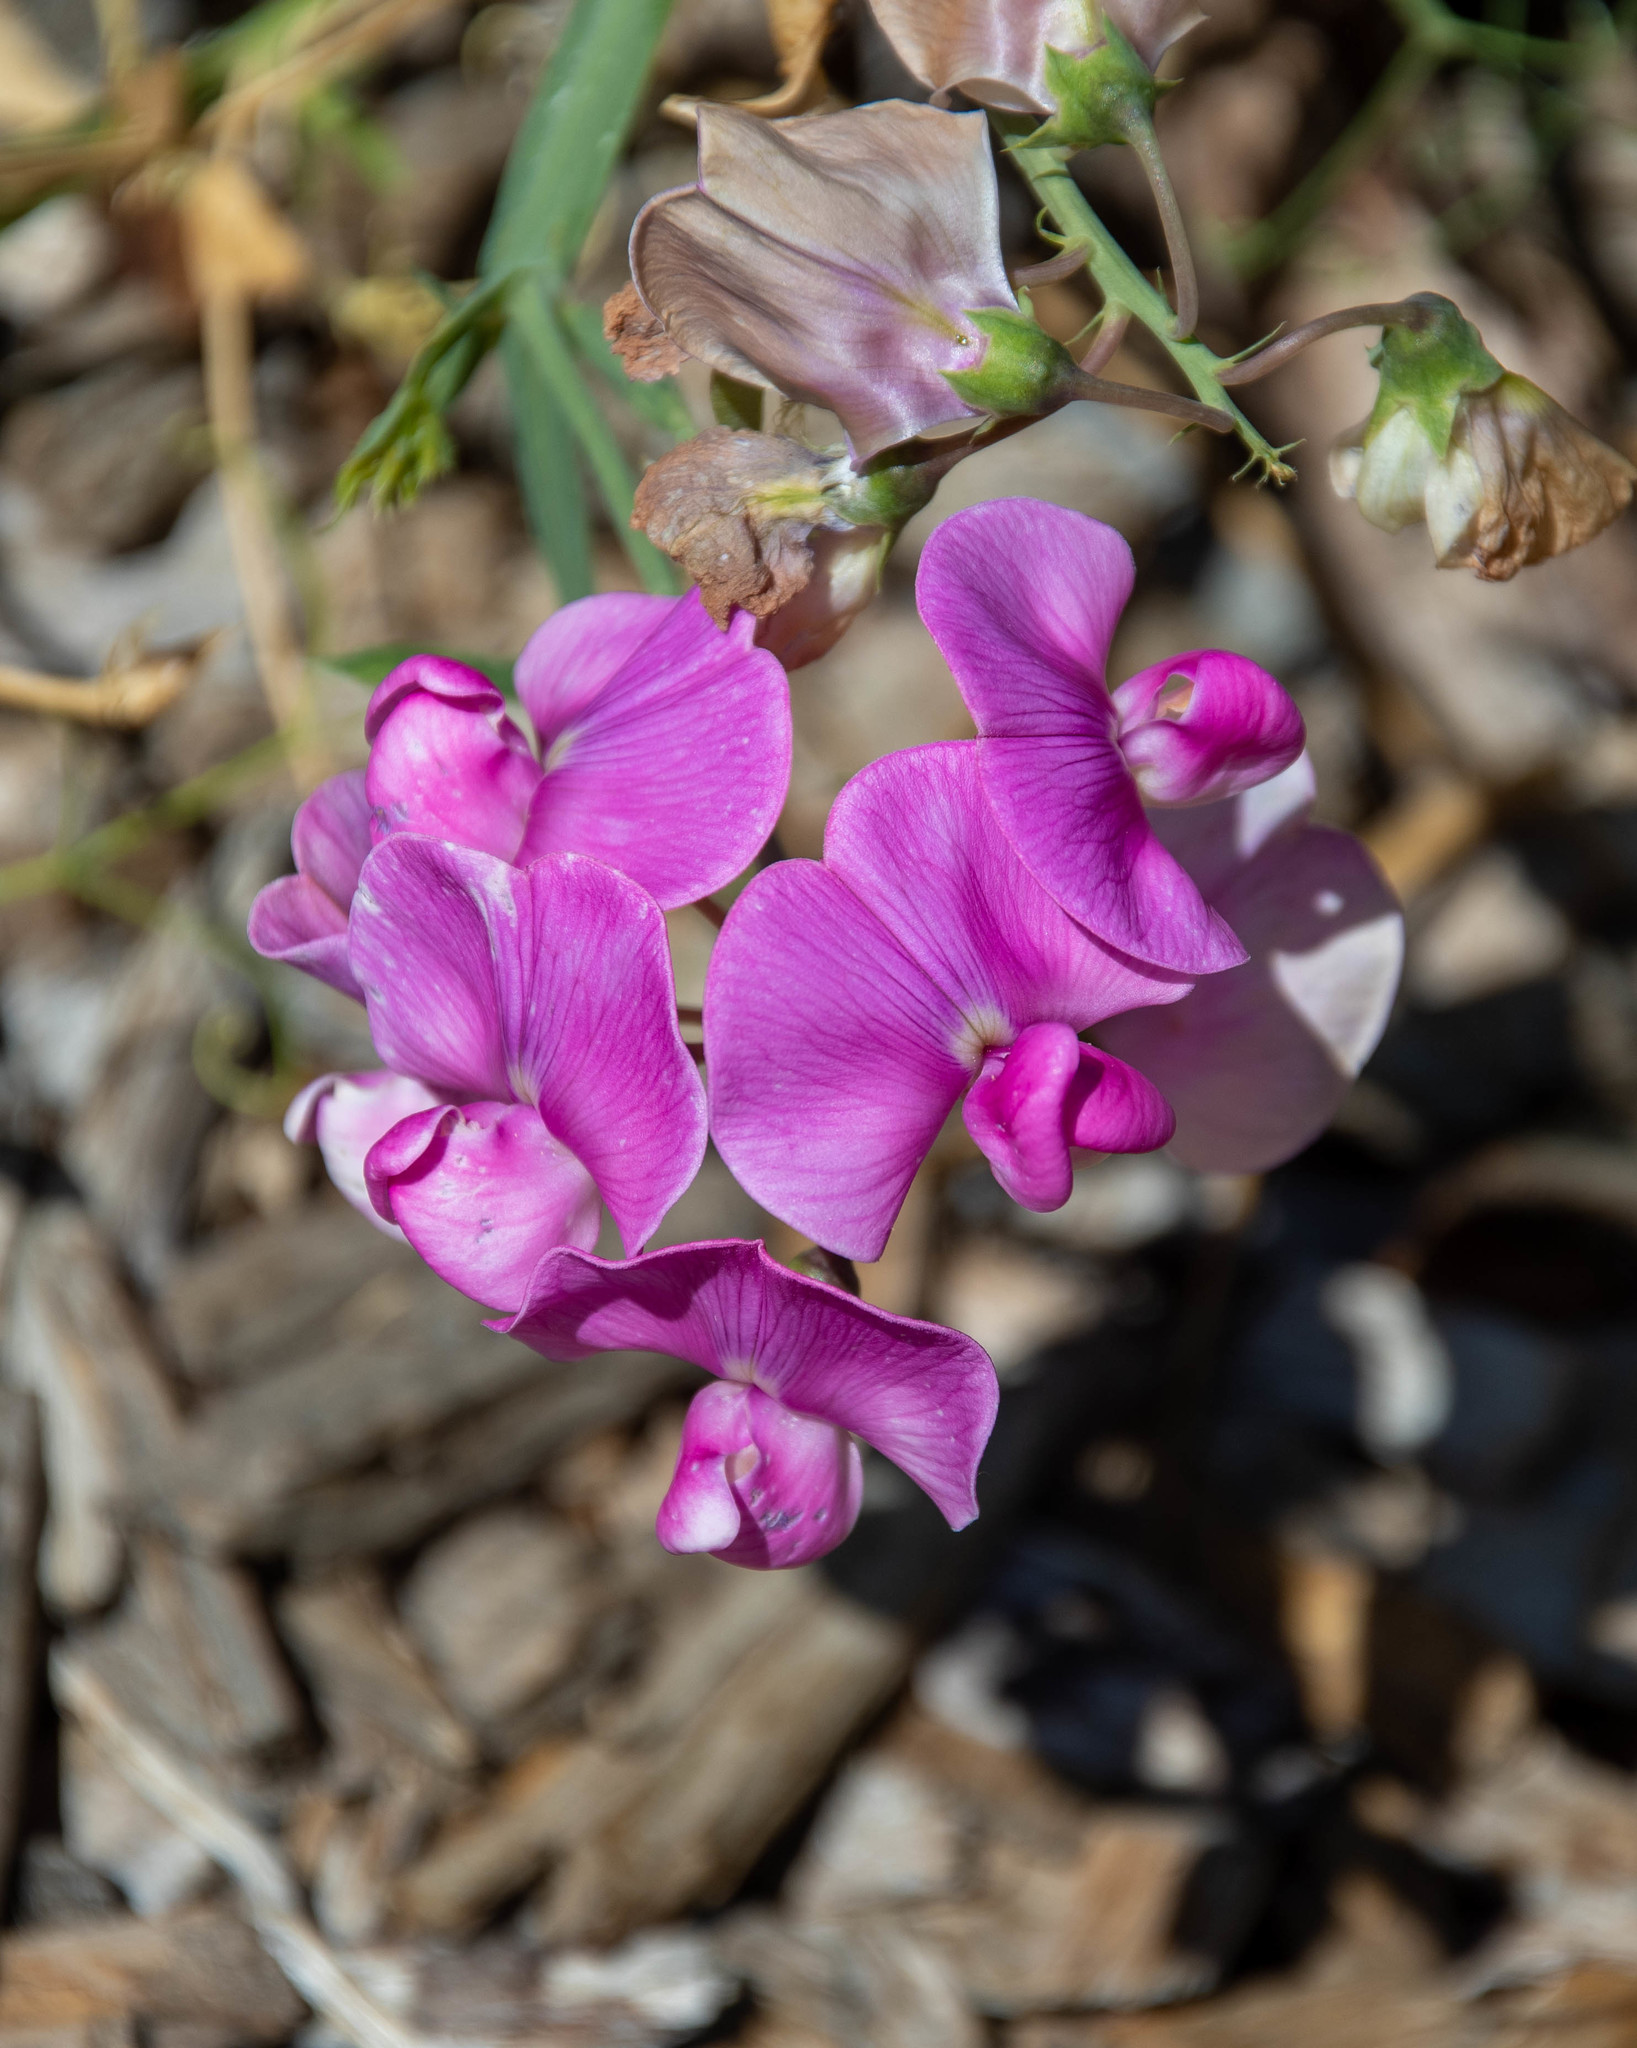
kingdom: Plantae
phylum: Tracheophyta
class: Magnoliopsida
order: Fabales
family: Fabaceae
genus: Lathyrus
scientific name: Lathyrus latifolius
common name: Perennial pea
